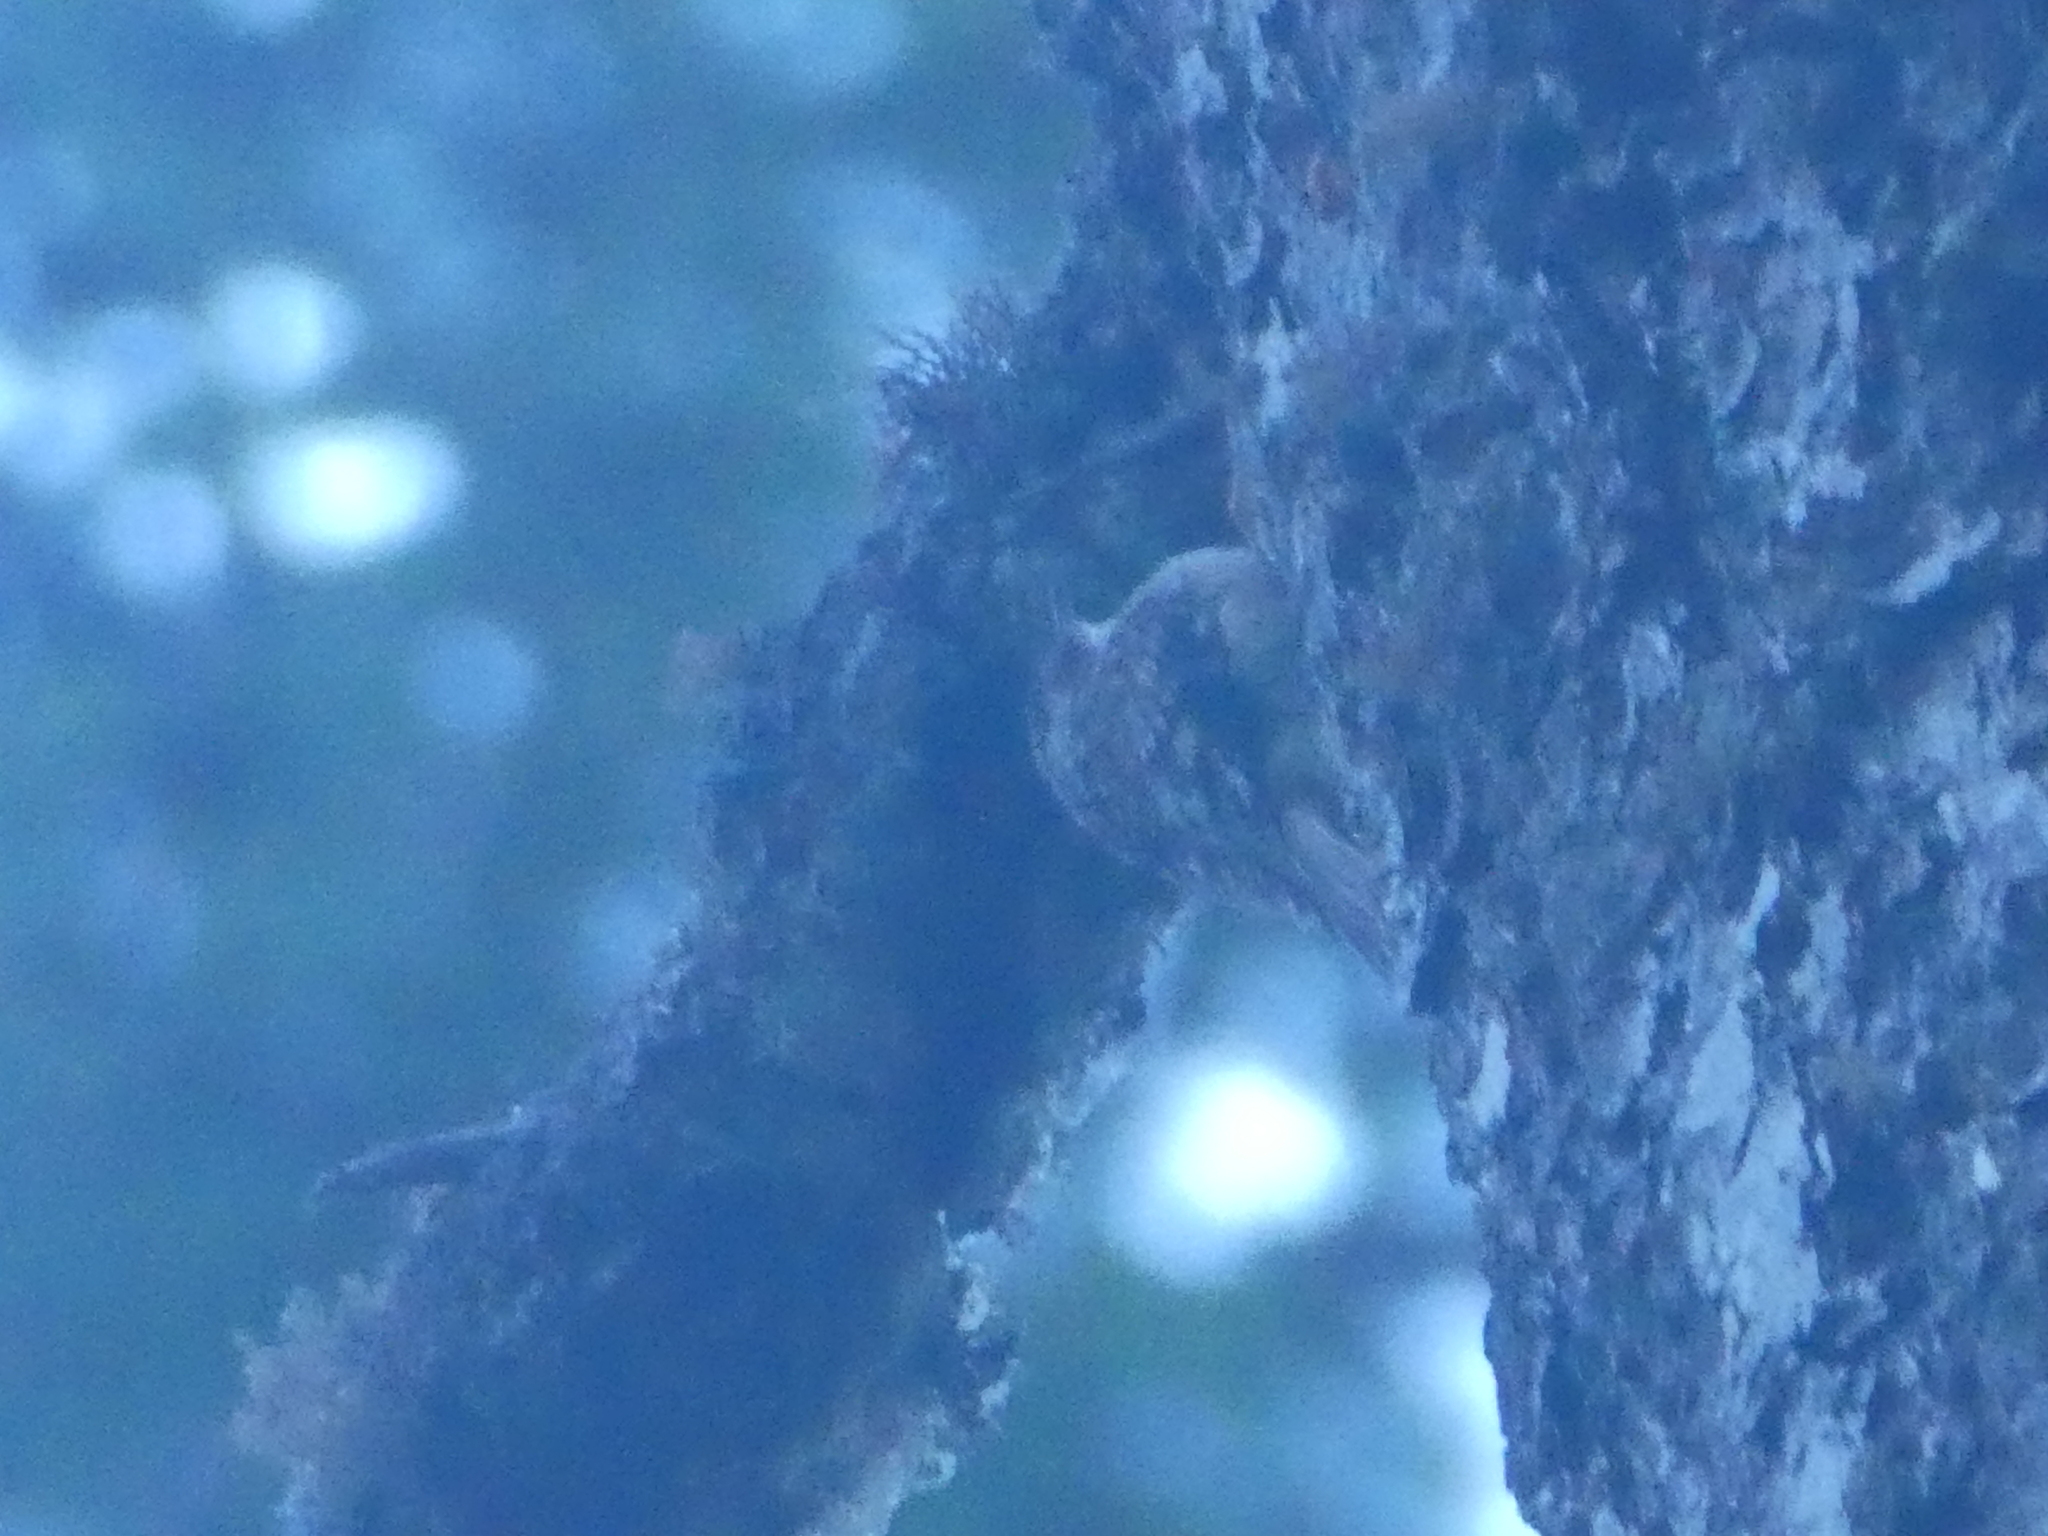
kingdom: Animalia
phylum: Chordata
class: Aves
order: Passeriformes
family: Certhiidae
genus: Certhia
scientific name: Certhia americana
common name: Brown creeper
